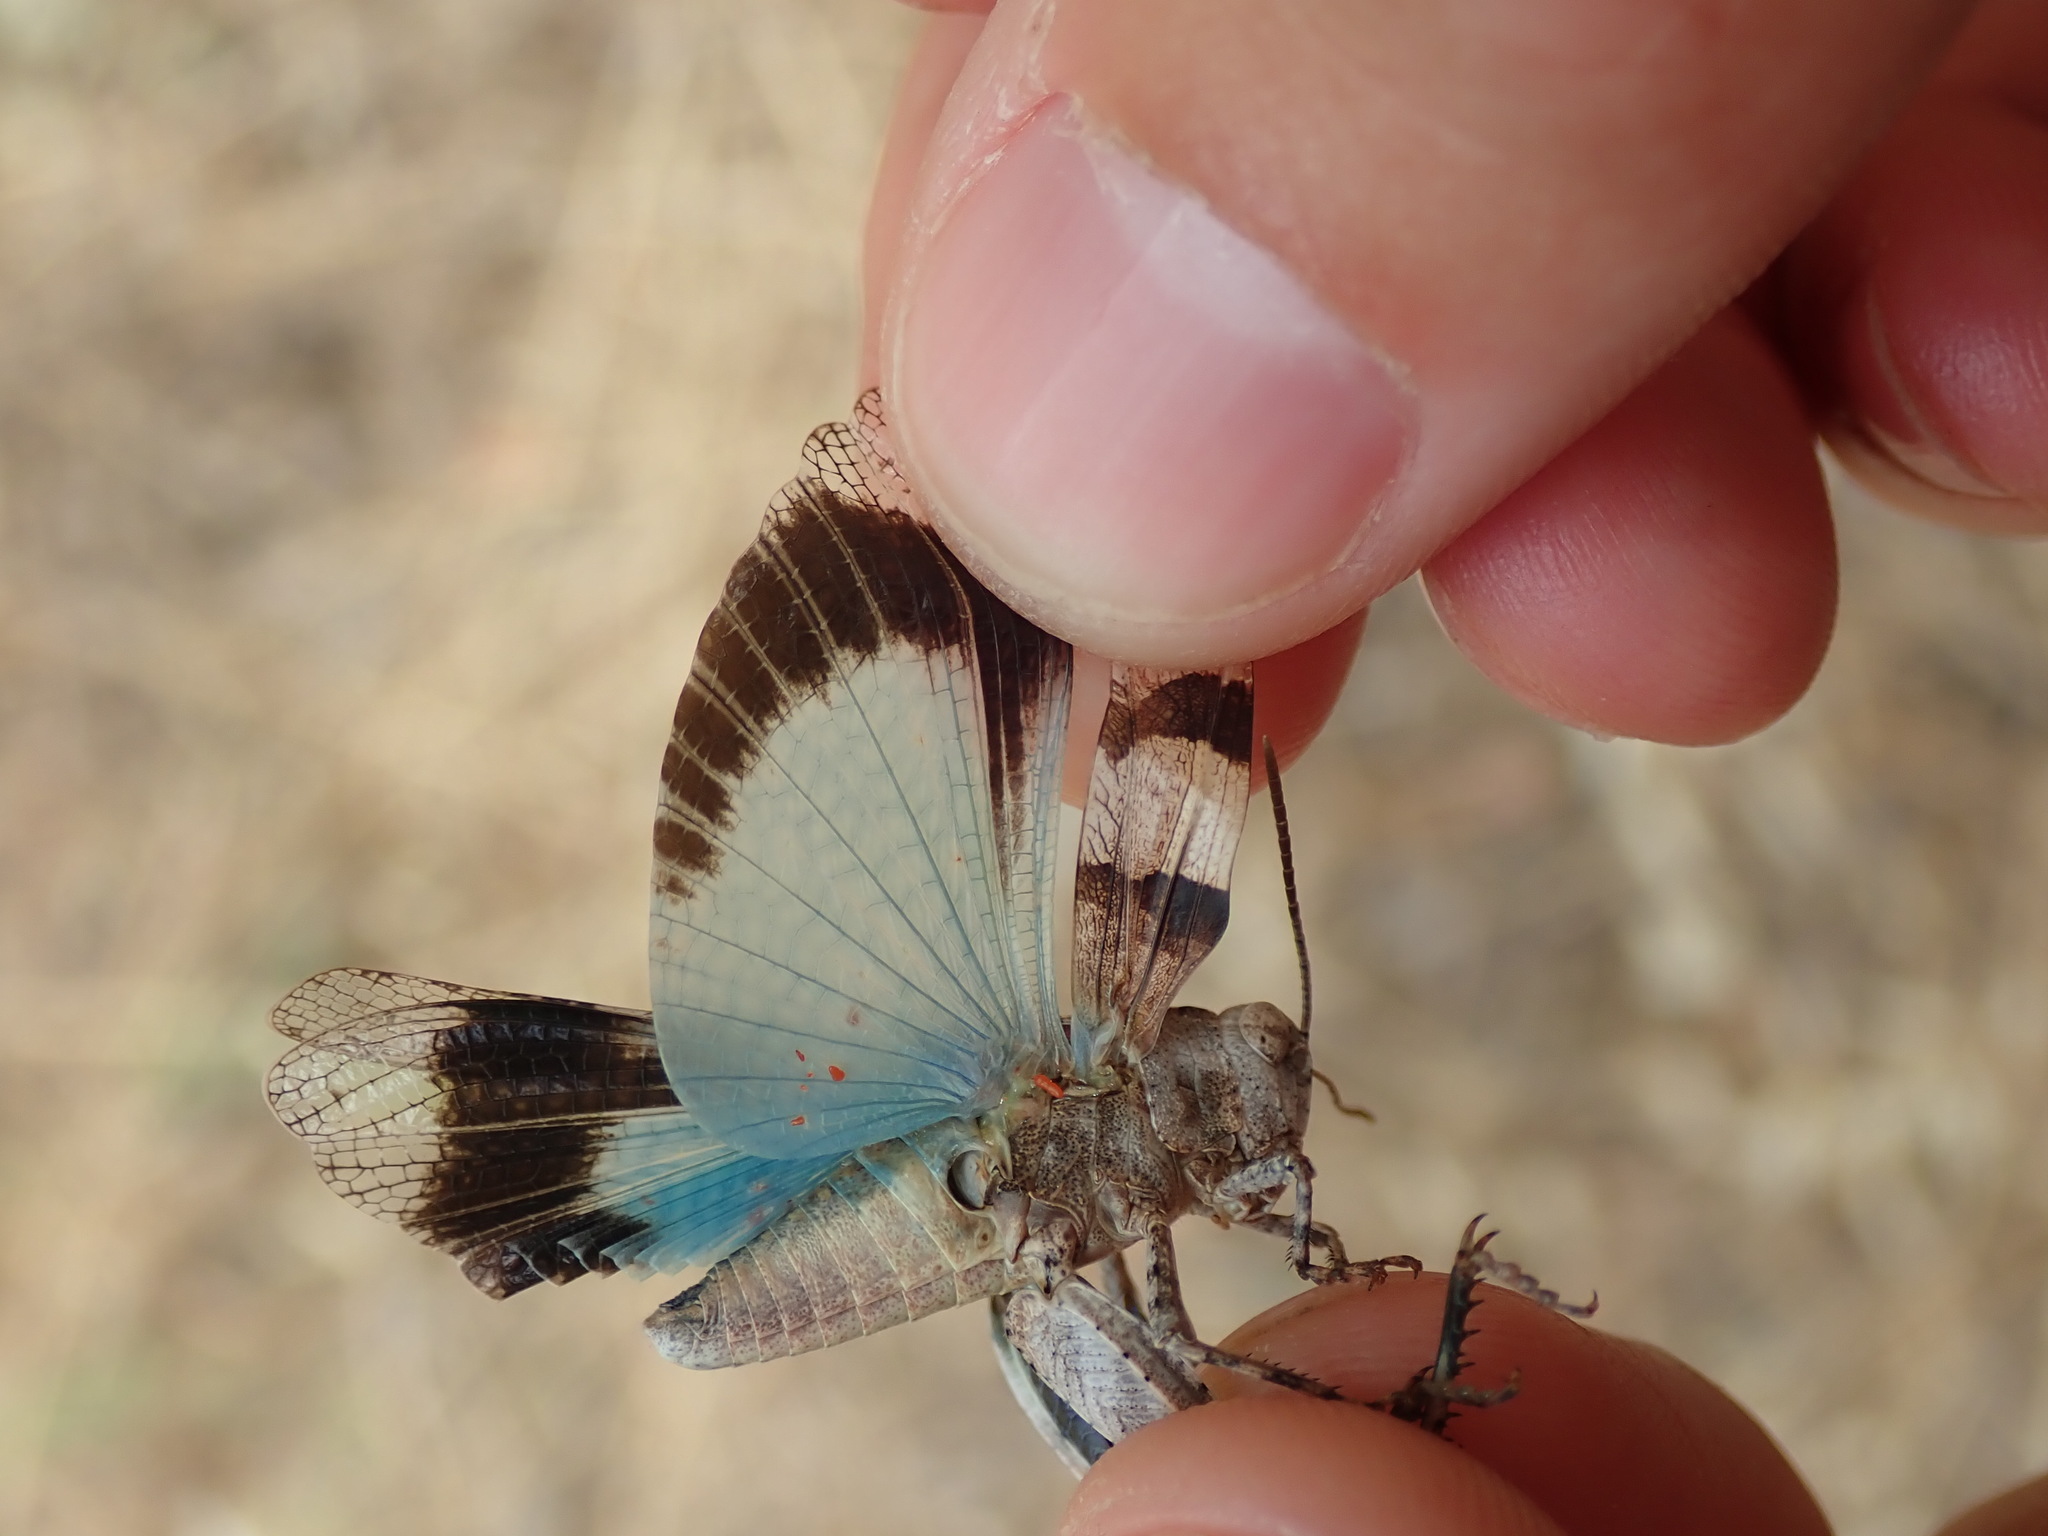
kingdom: Animalia
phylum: Arthropoda
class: Insecta
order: Orthoptera
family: Acrididae
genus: Oedipoda
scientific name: Oedipoda charpentieri
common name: Western band-winged grasshopper
